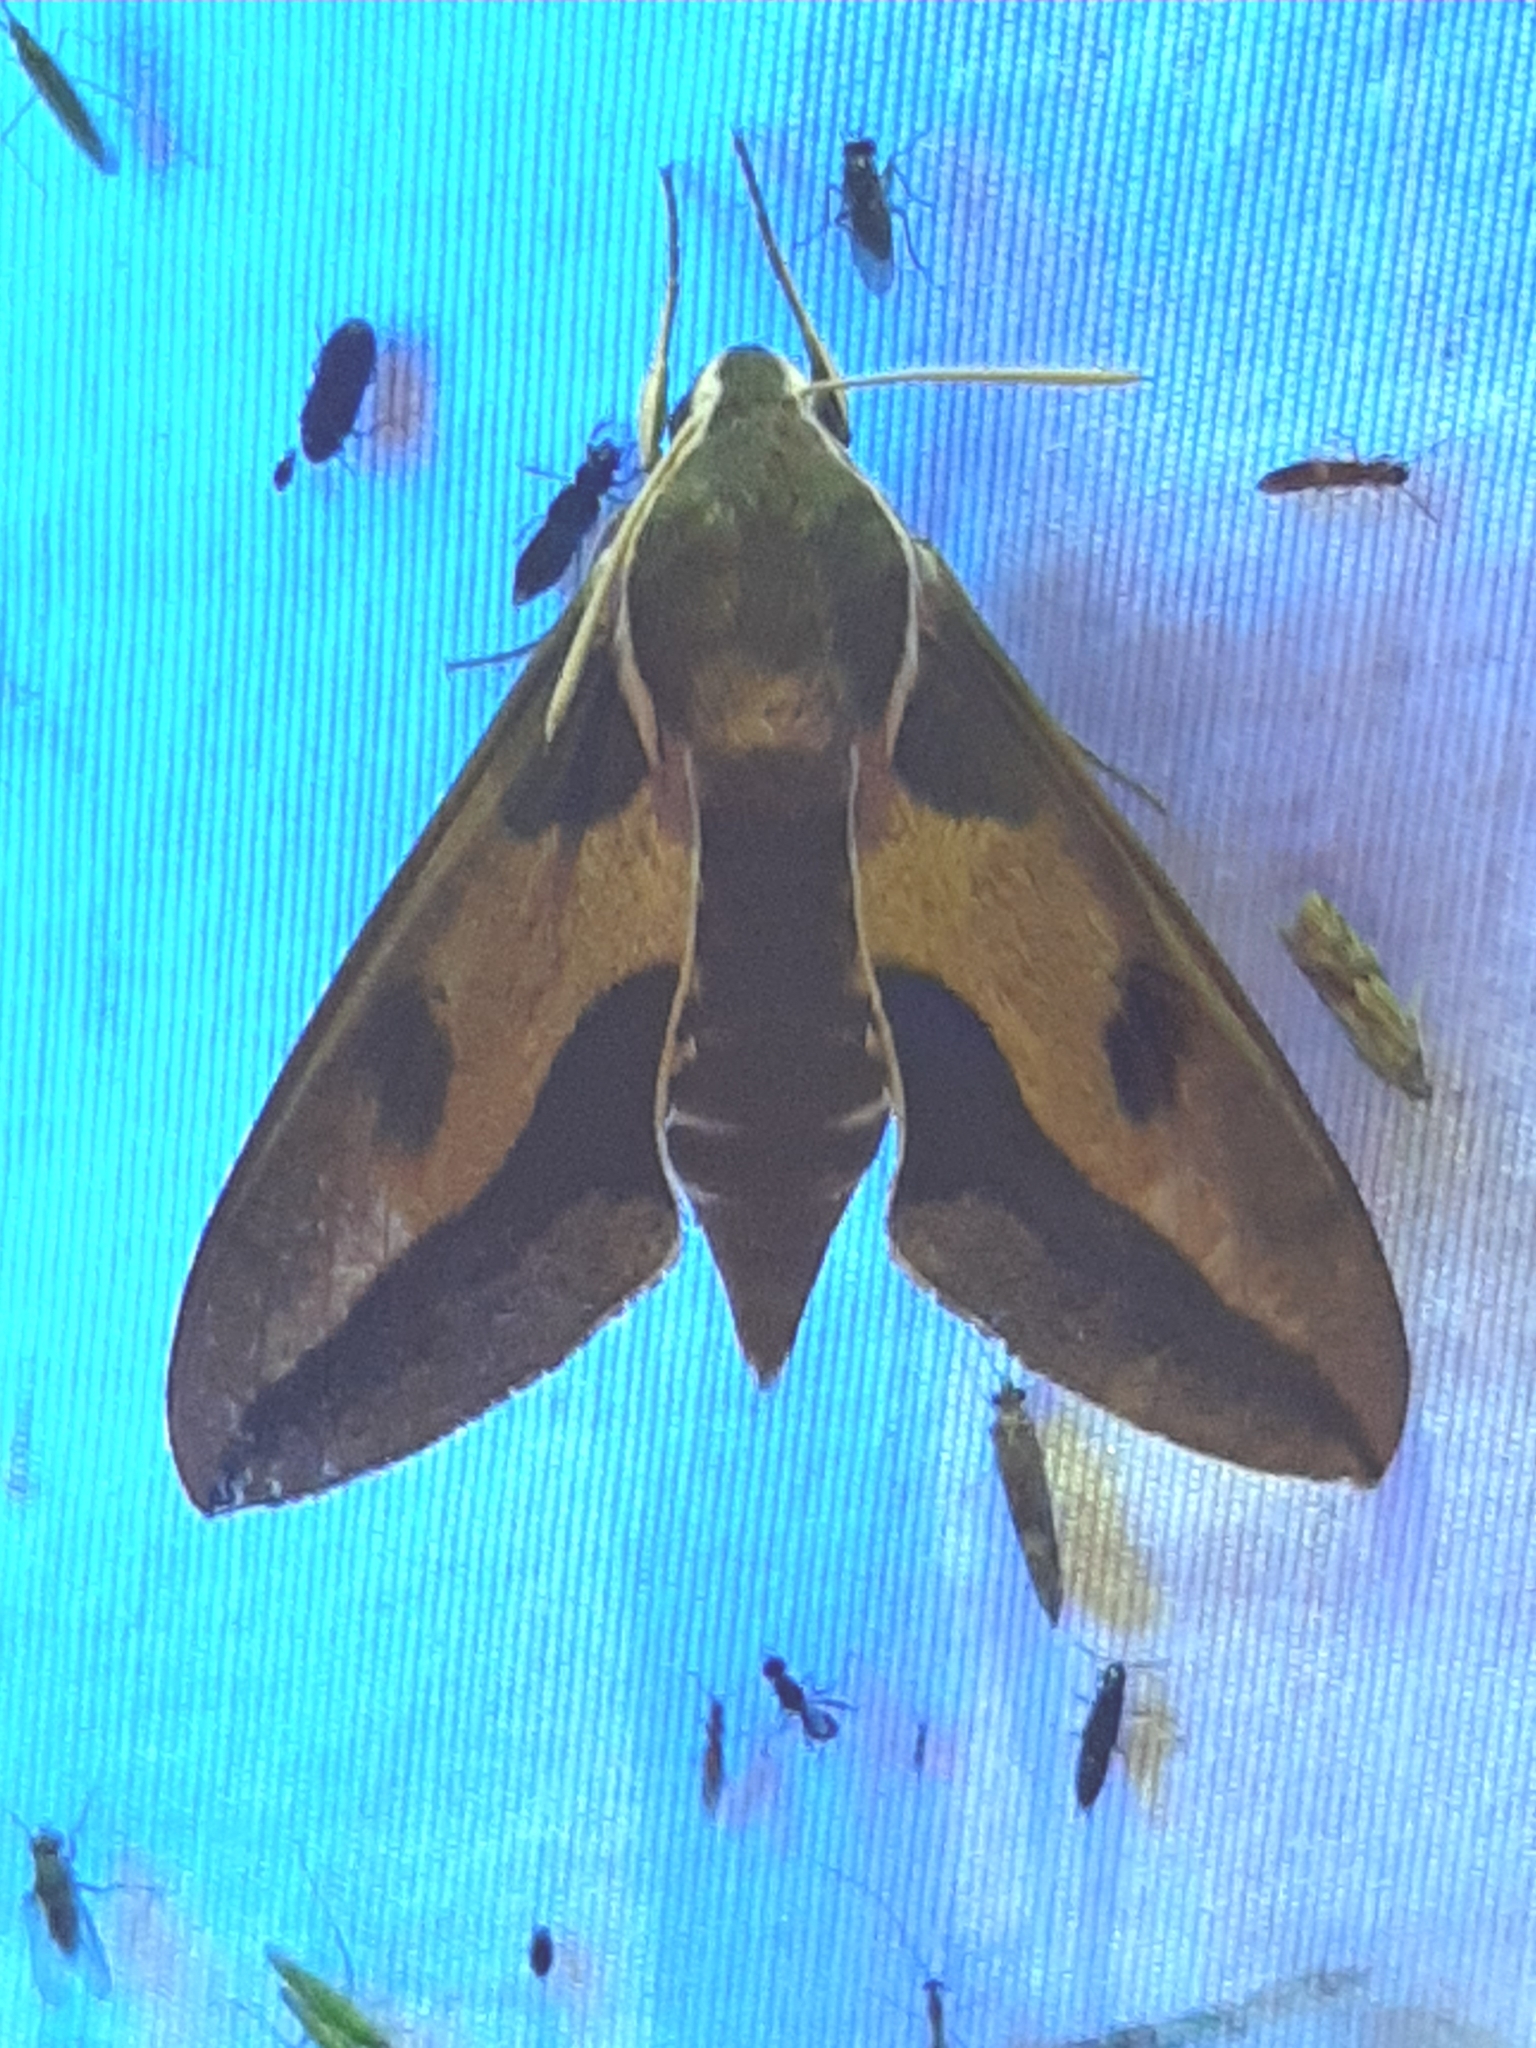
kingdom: Animalia
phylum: Arthropoda
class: Insecta
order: Lepidoptera
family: Sphingidae
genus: Hyles
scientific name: Hyles euphorbiae
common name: Spurge hawk-moth
